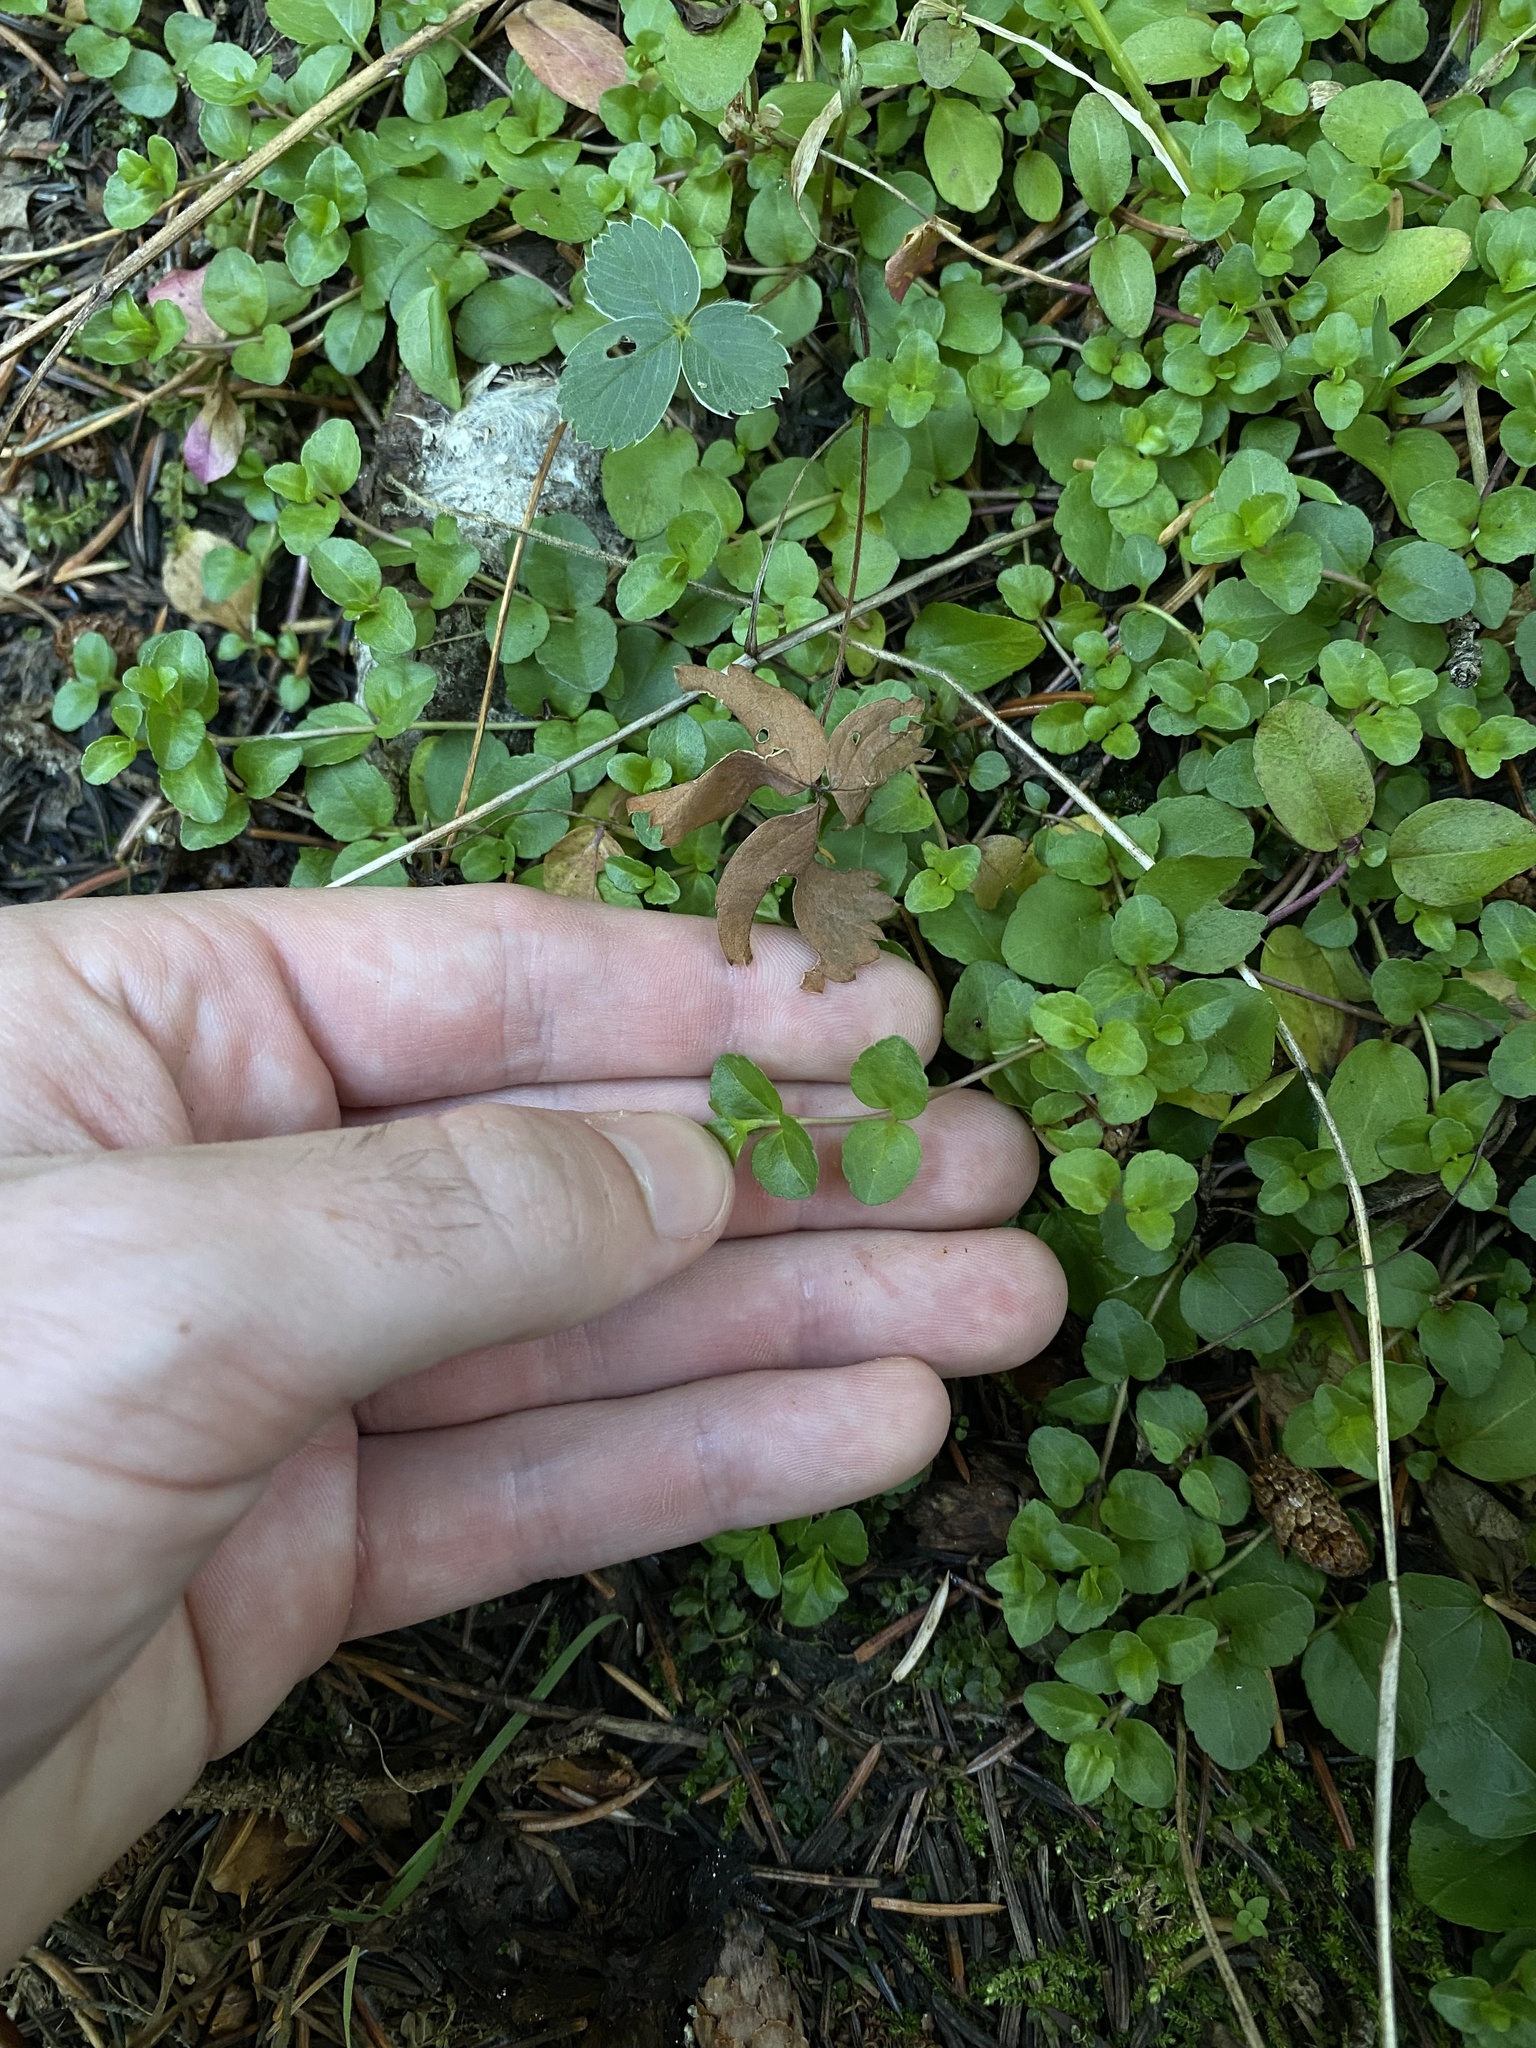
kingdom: Plantae
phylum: Tracheophyta
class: Magnoliopsida
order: Lamiales
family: Plantaginaceae
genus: Veronica
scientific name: Veronica serpyllifolia
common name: Thyme-leaved speedwell
